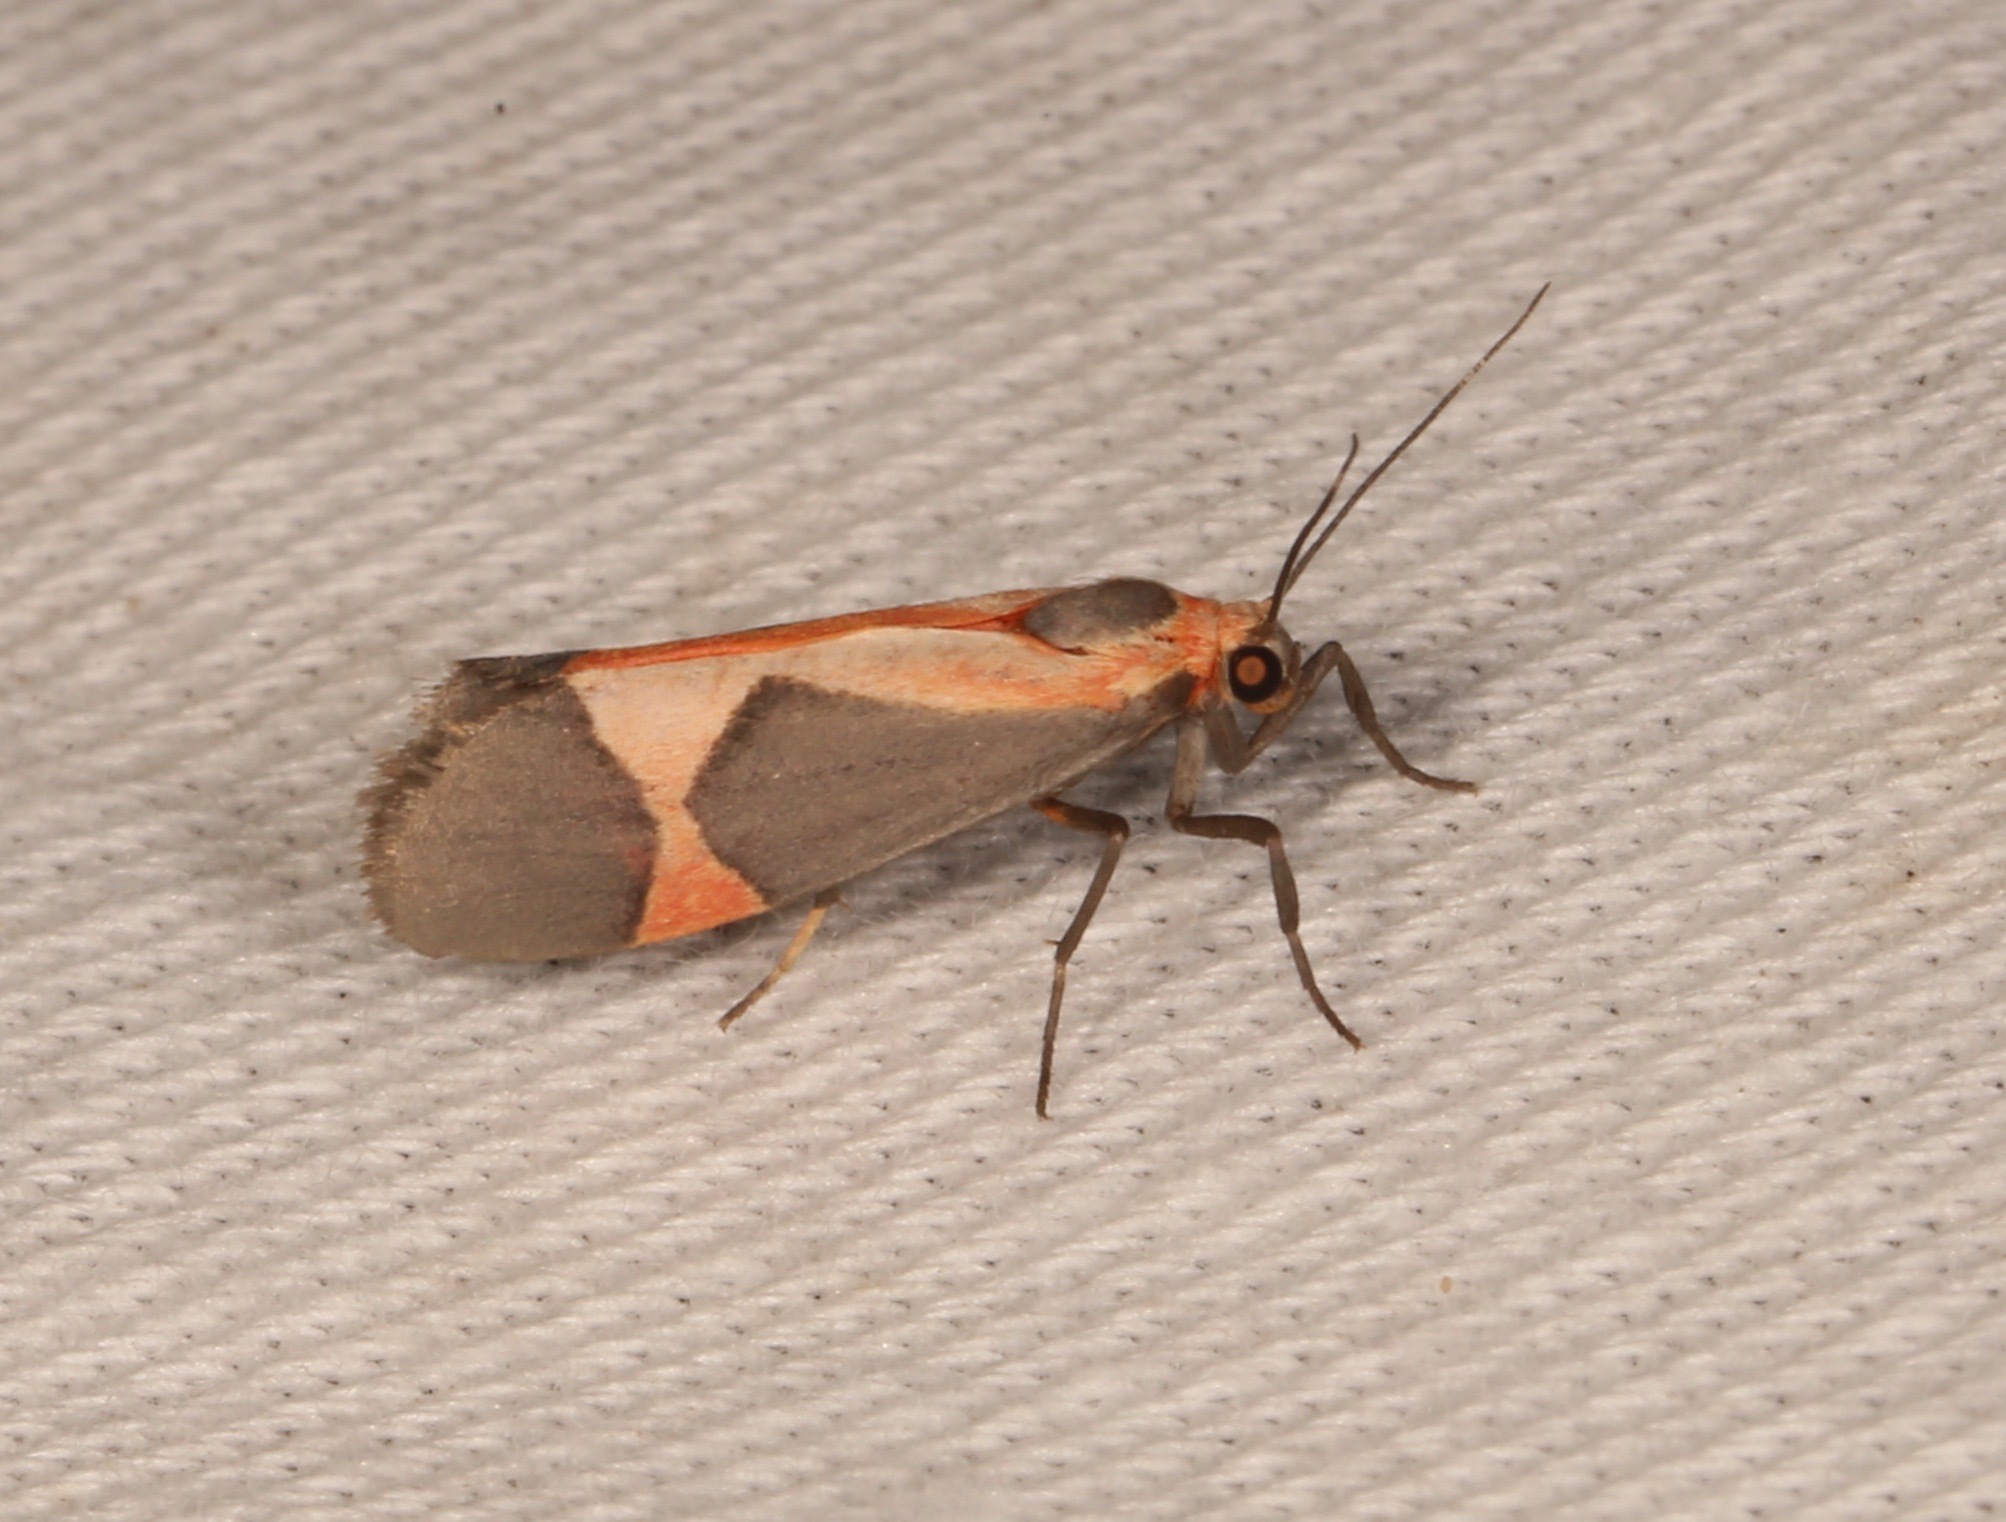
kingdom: Animalia
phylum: Arthropoda
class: Insecta
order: Lepidoptera
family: Erebidae
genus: Cisthene
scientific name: Cisthene martini
